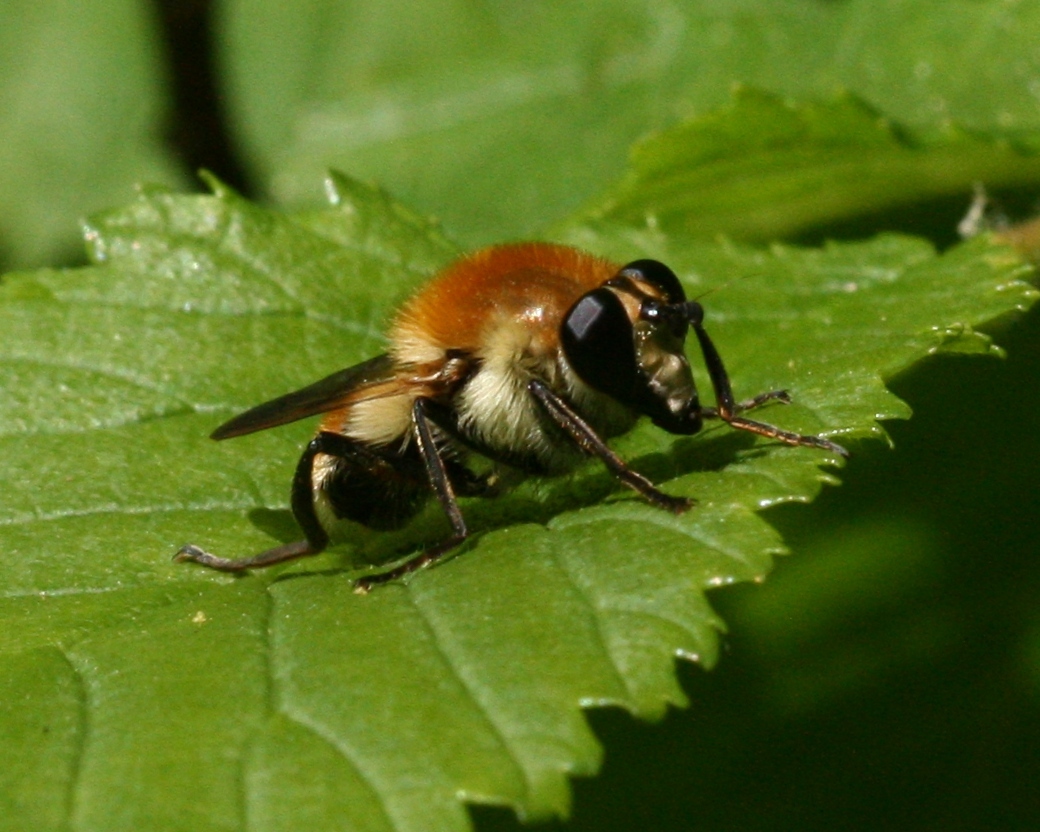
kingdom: Animalia
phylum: Arthropoda
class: Insecta
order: Diptera
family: Syrphidae
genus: Criorhina
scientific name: Criorhina floccosa
